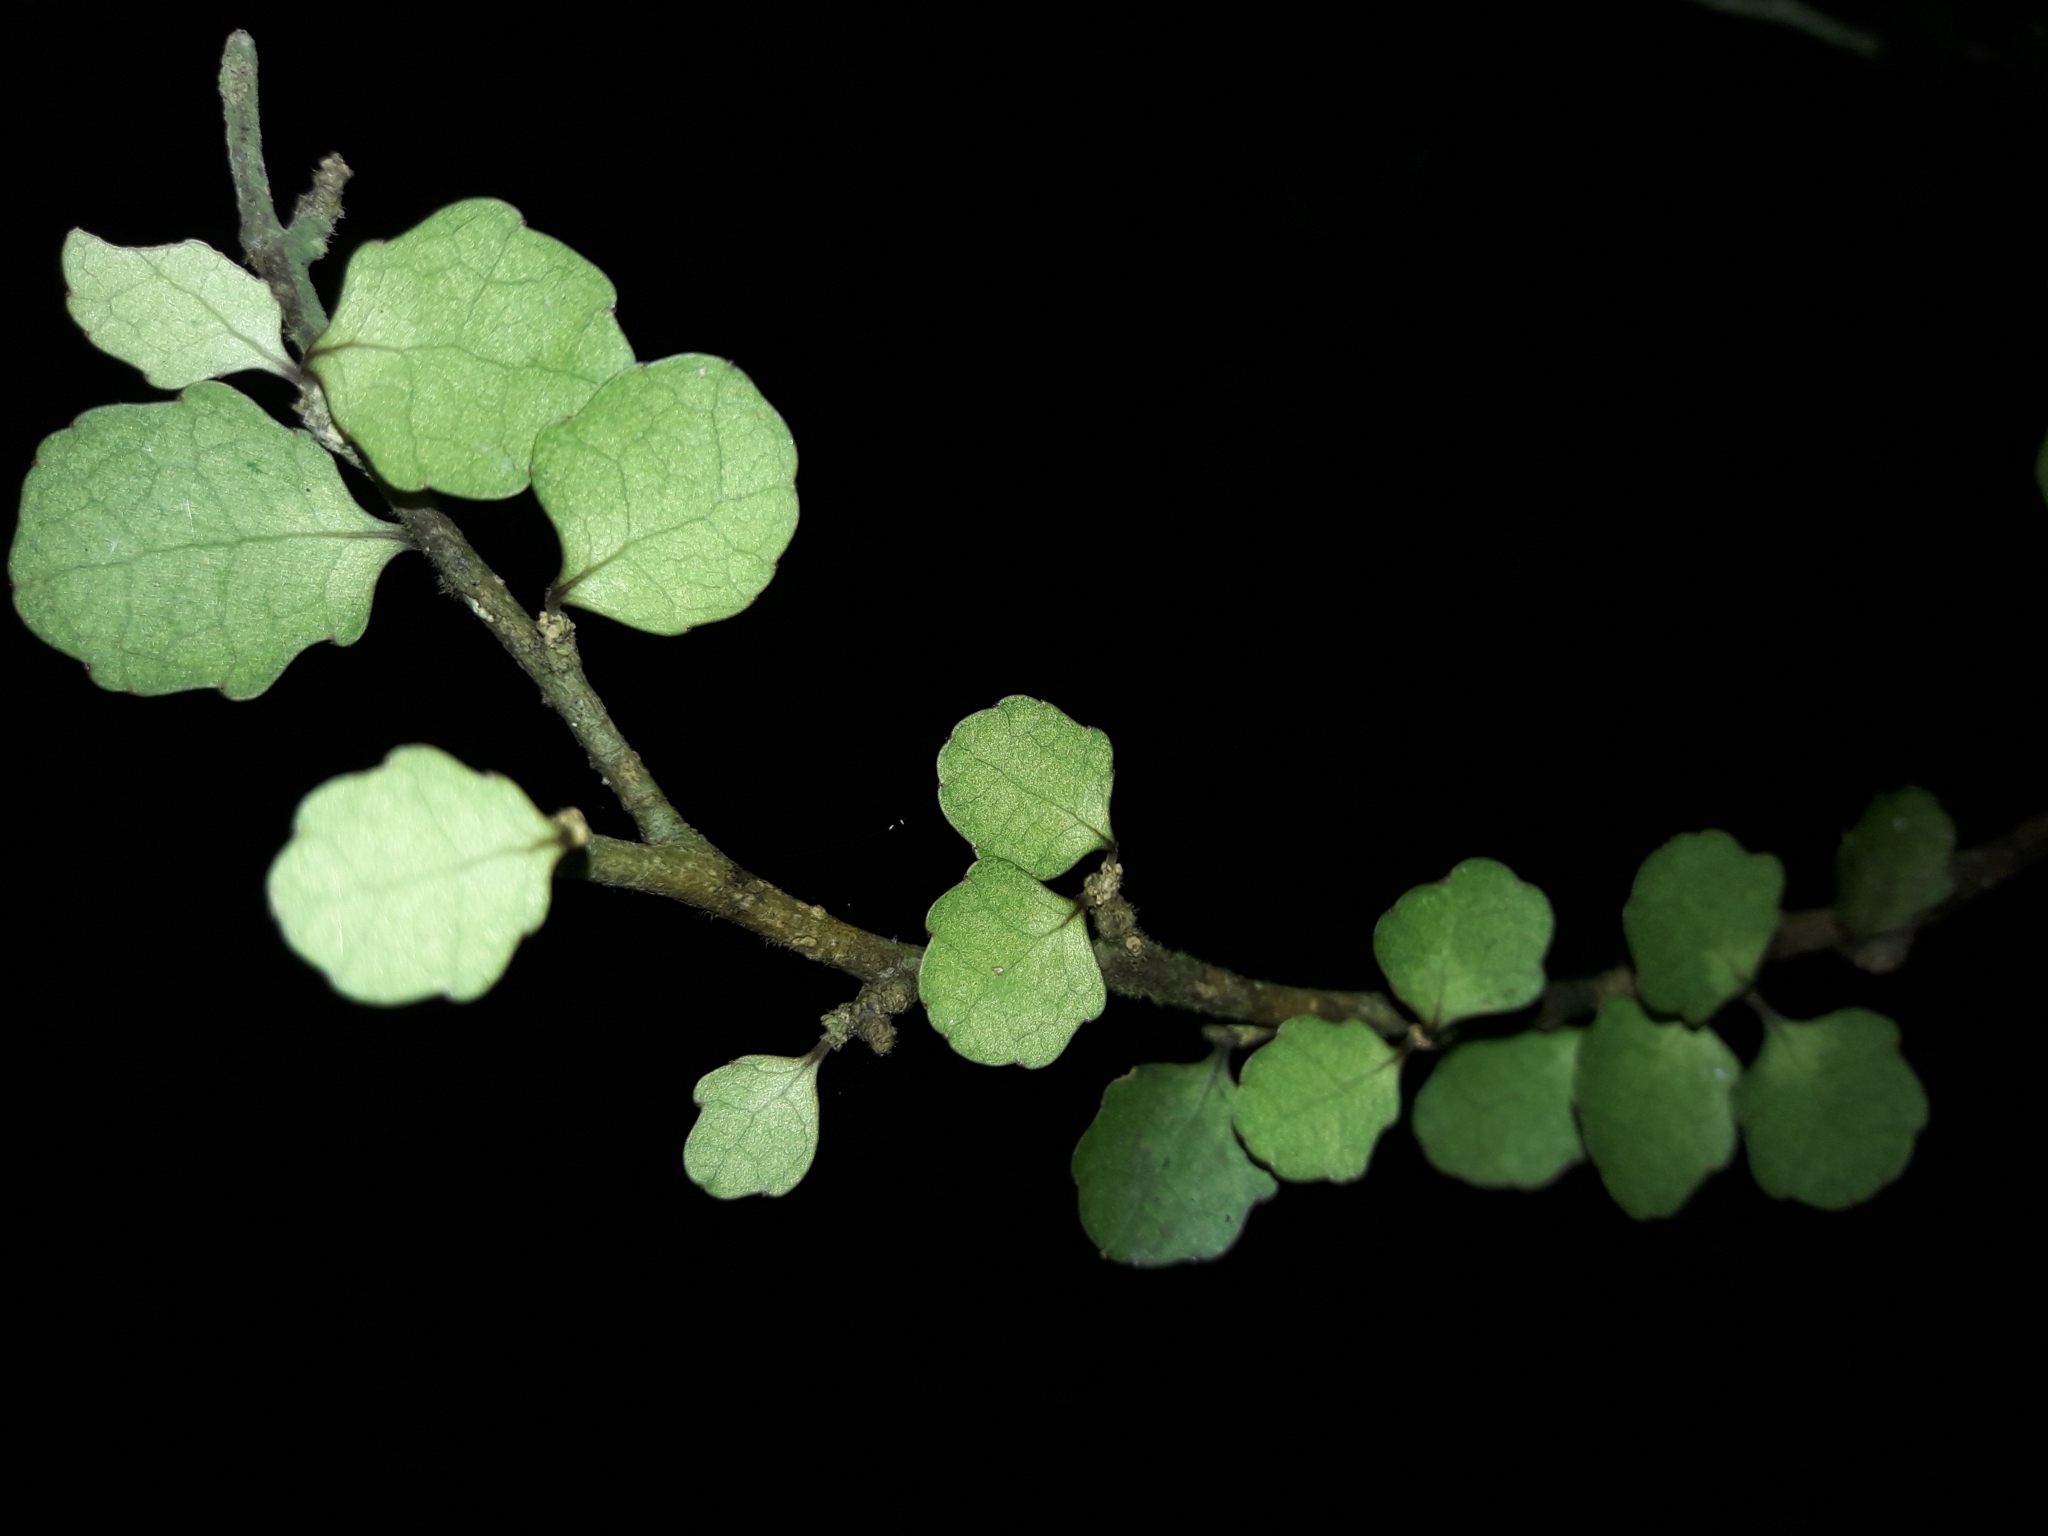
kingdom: Plantae
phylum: Tracheophyta
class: Magnoliopsida
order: Malpighiales
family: Violaceae
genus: Melicytus
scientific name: Melicytus micranthus
